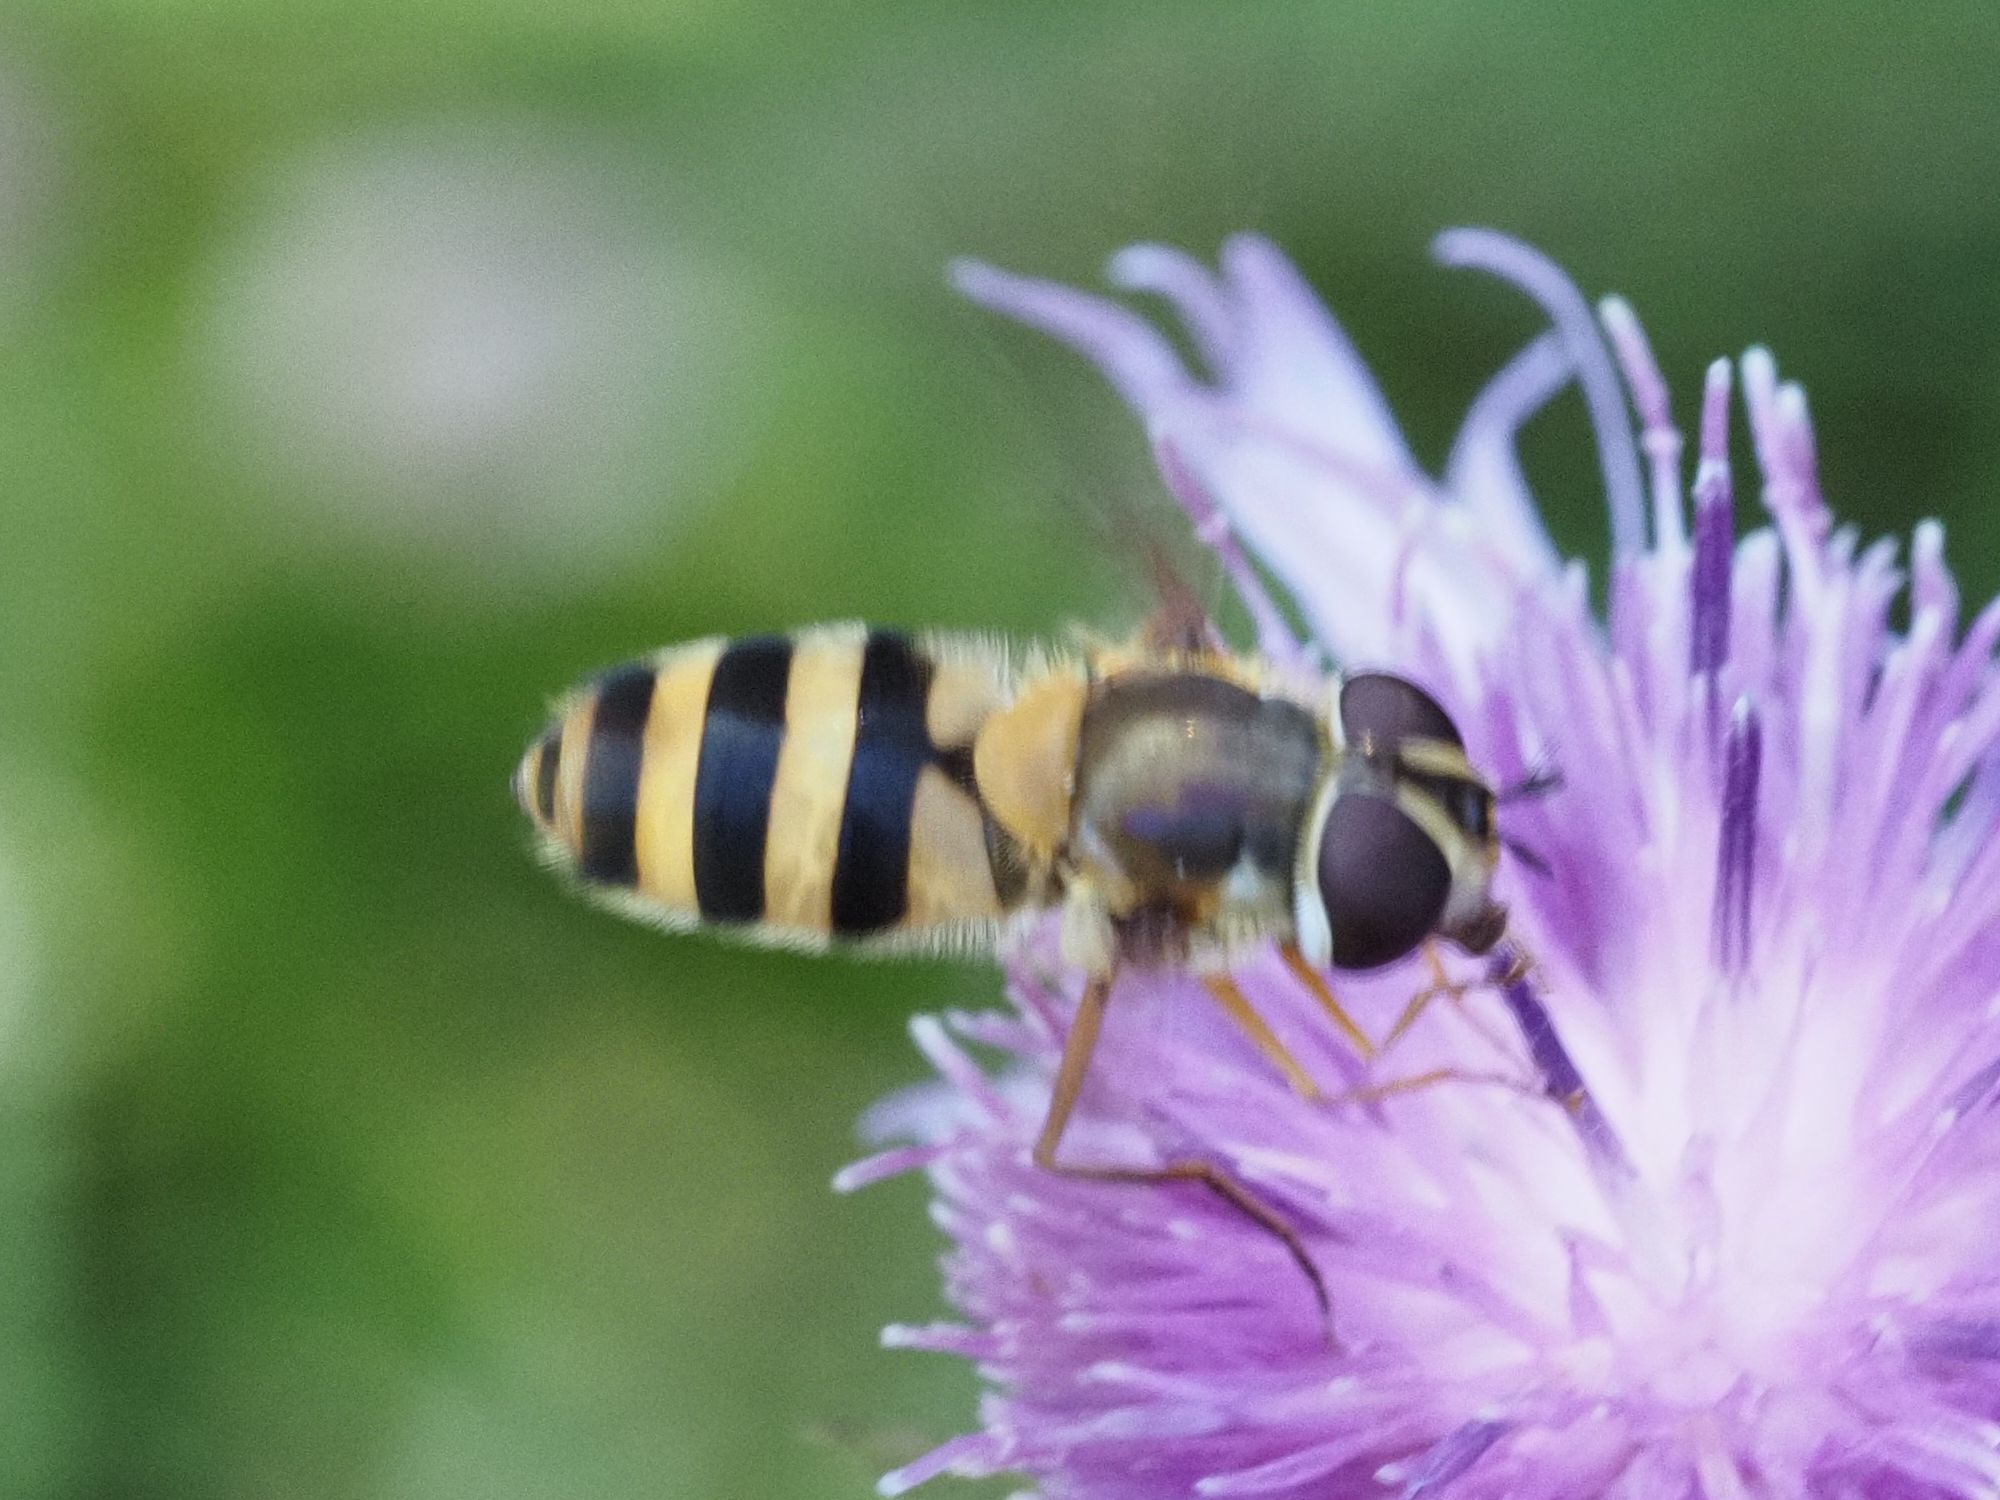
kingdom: Animalia
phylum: Arthropoda
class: Insecta
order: Diptera
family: Syrphidae
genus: Epistrophe
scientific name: Epistrophe grossulariae
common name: Black-horned smoothtail
